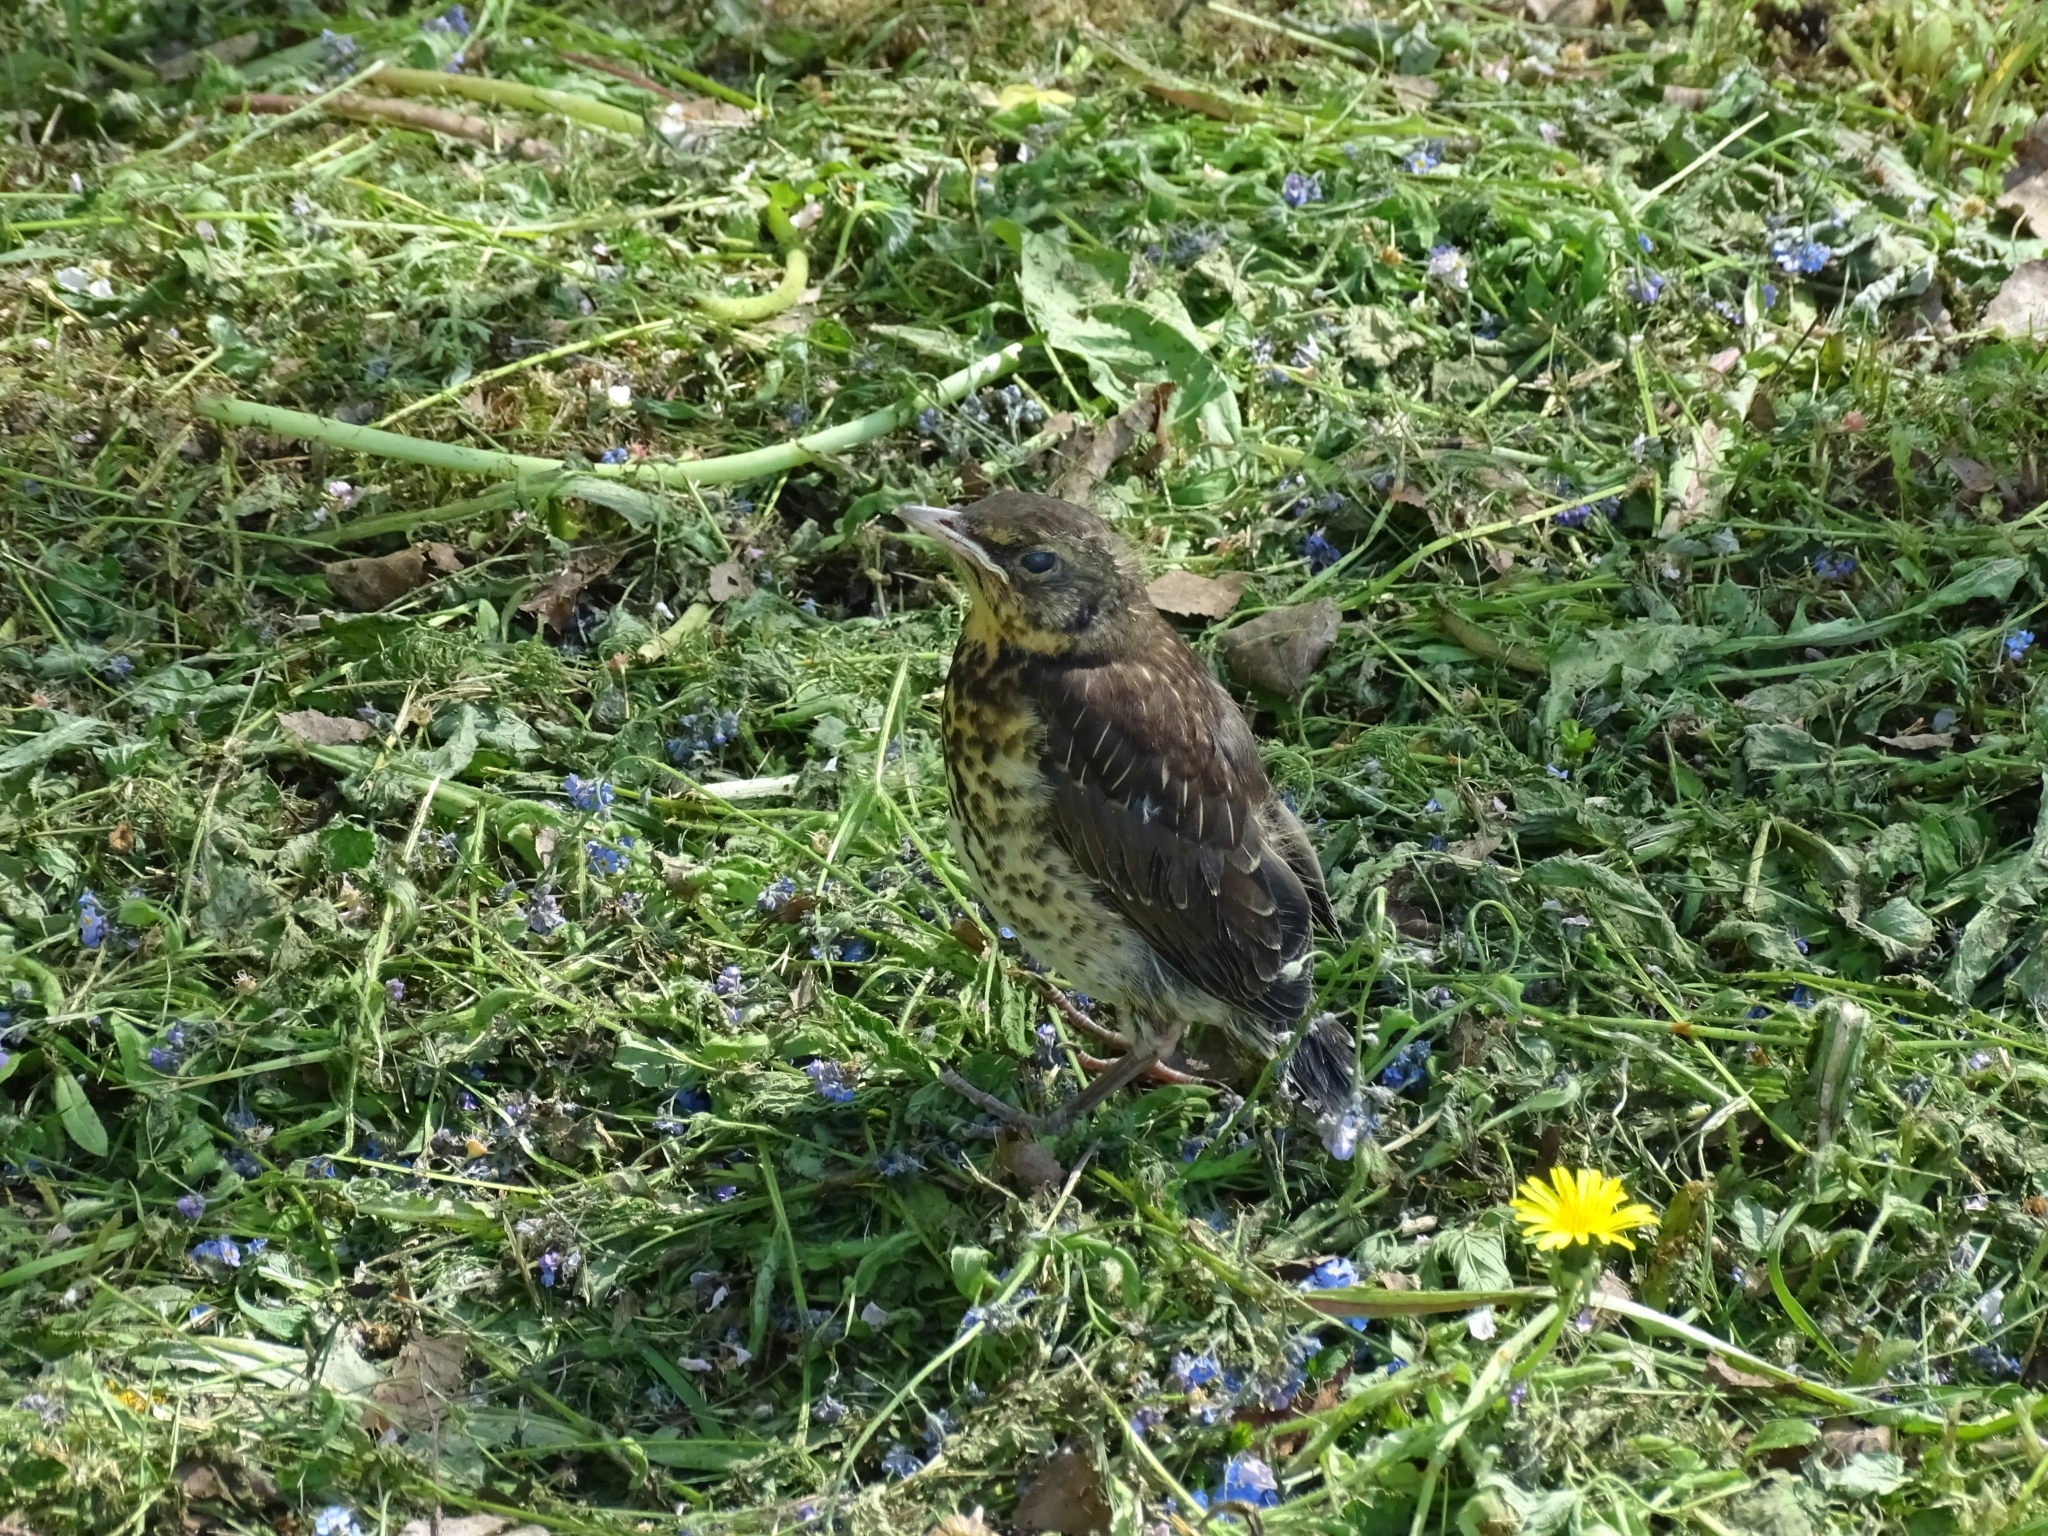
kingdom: Animalia
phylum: Chordata
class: Aves
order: Passeriformes
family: Turdidae
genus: Turdus
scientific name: Turdus pilaris
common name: Fieldfare
